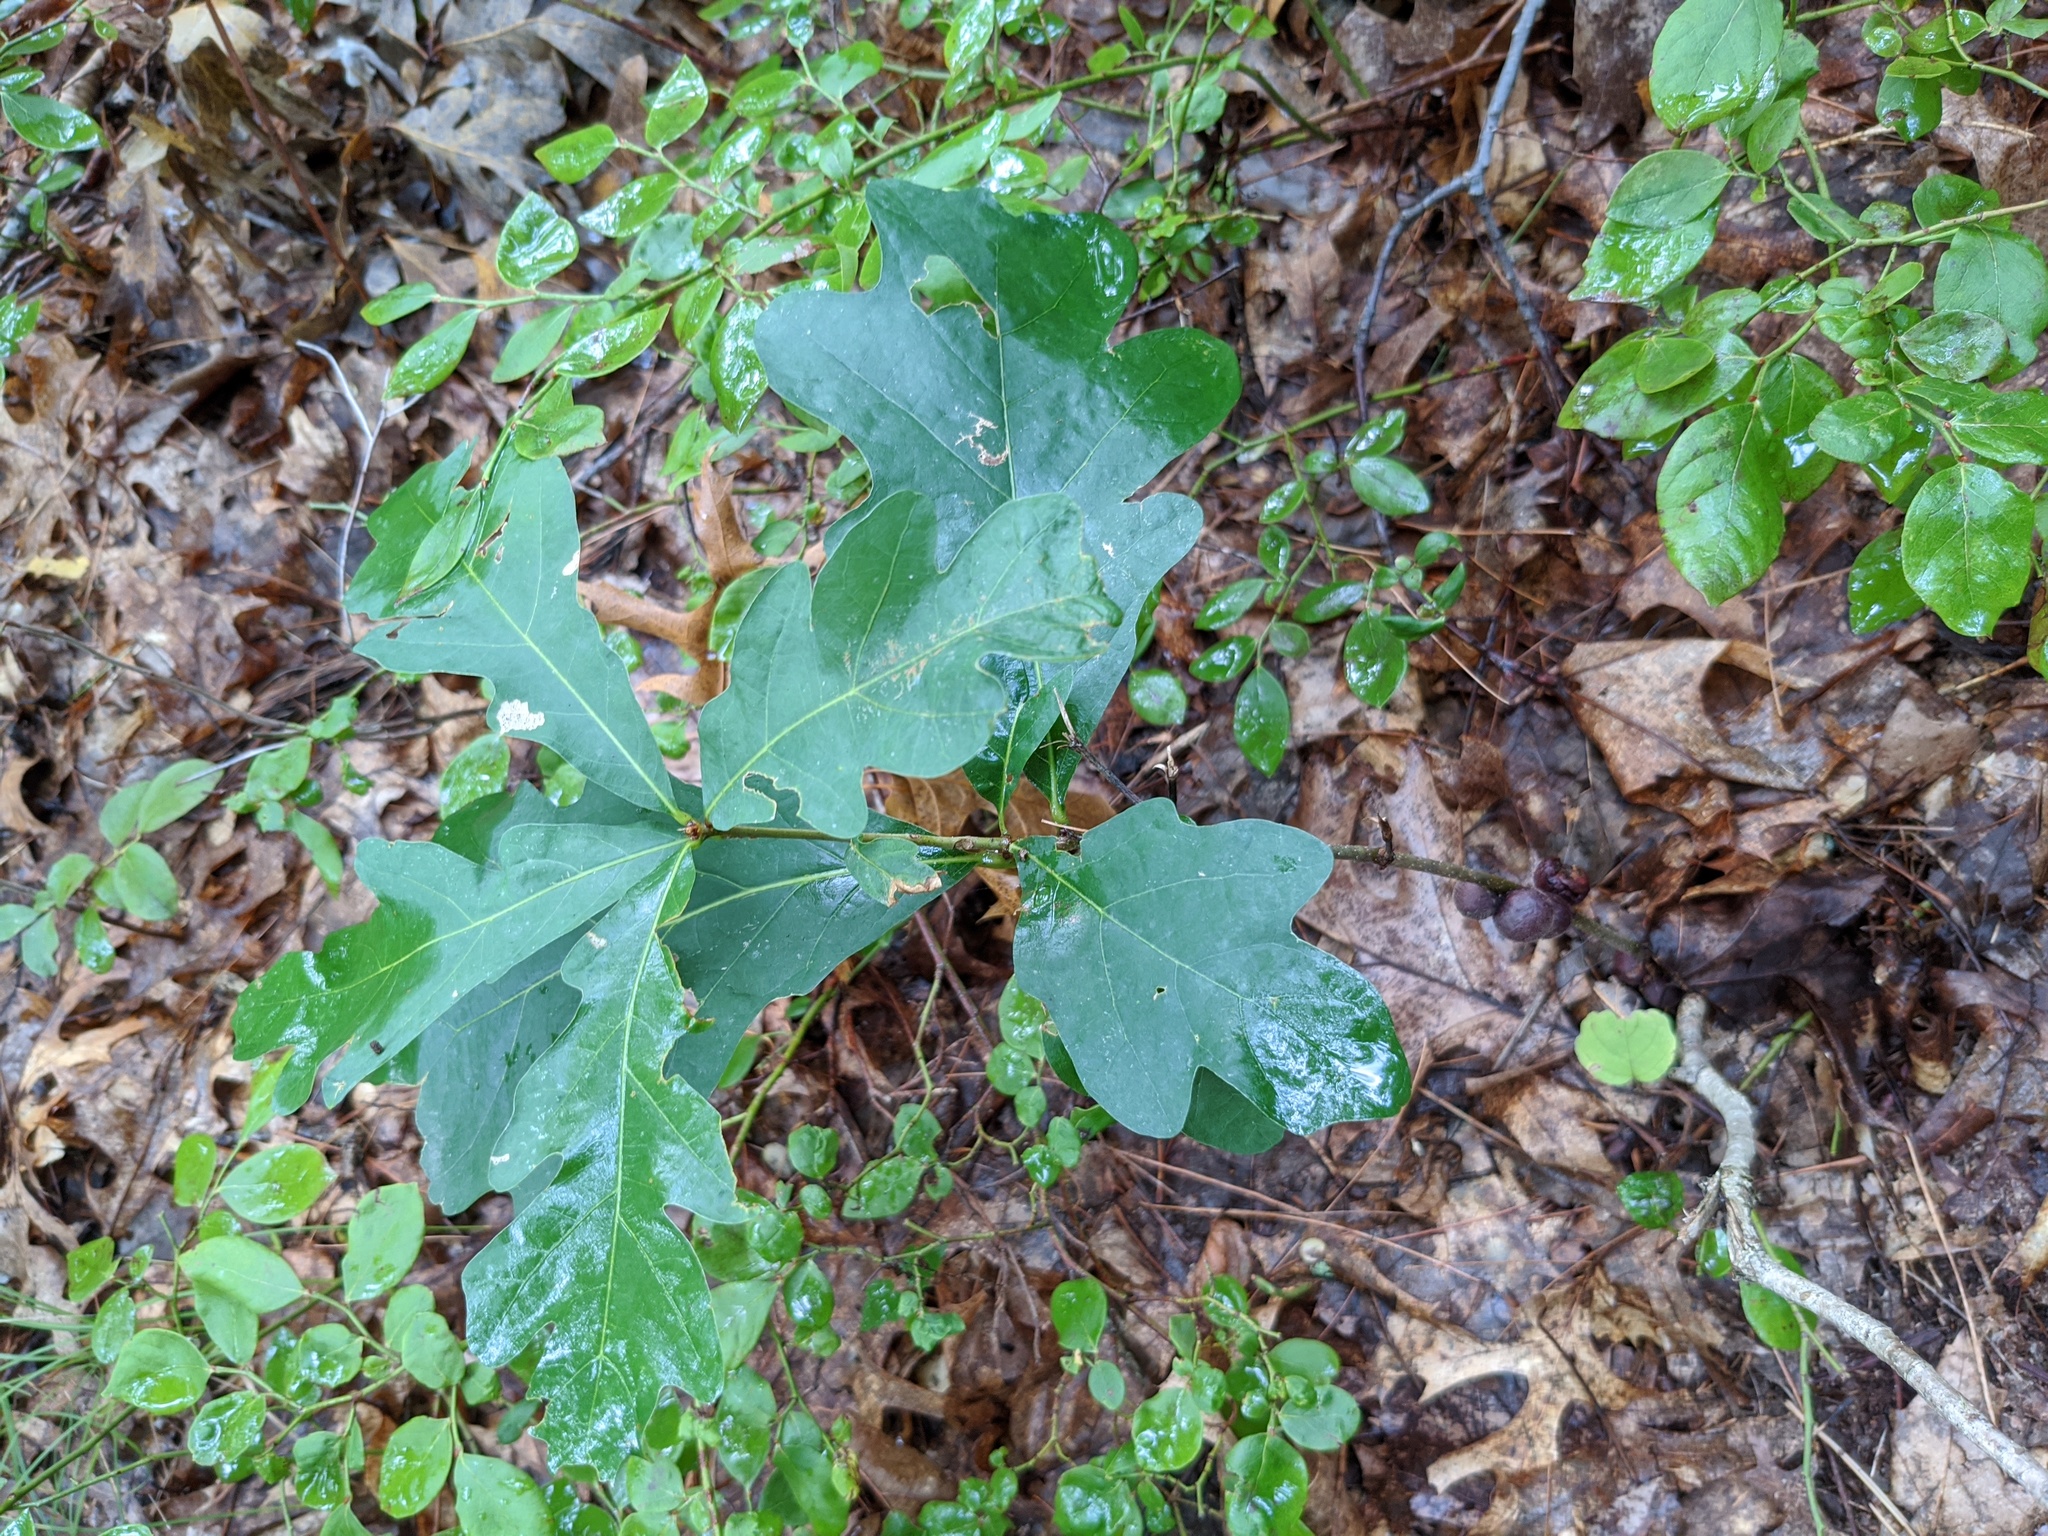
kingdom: Animalia
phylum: Arthropoda
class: Insecta
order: Hymenoptera
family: Cynipidae
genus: Disholcaspis
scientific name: Disholcaspis
